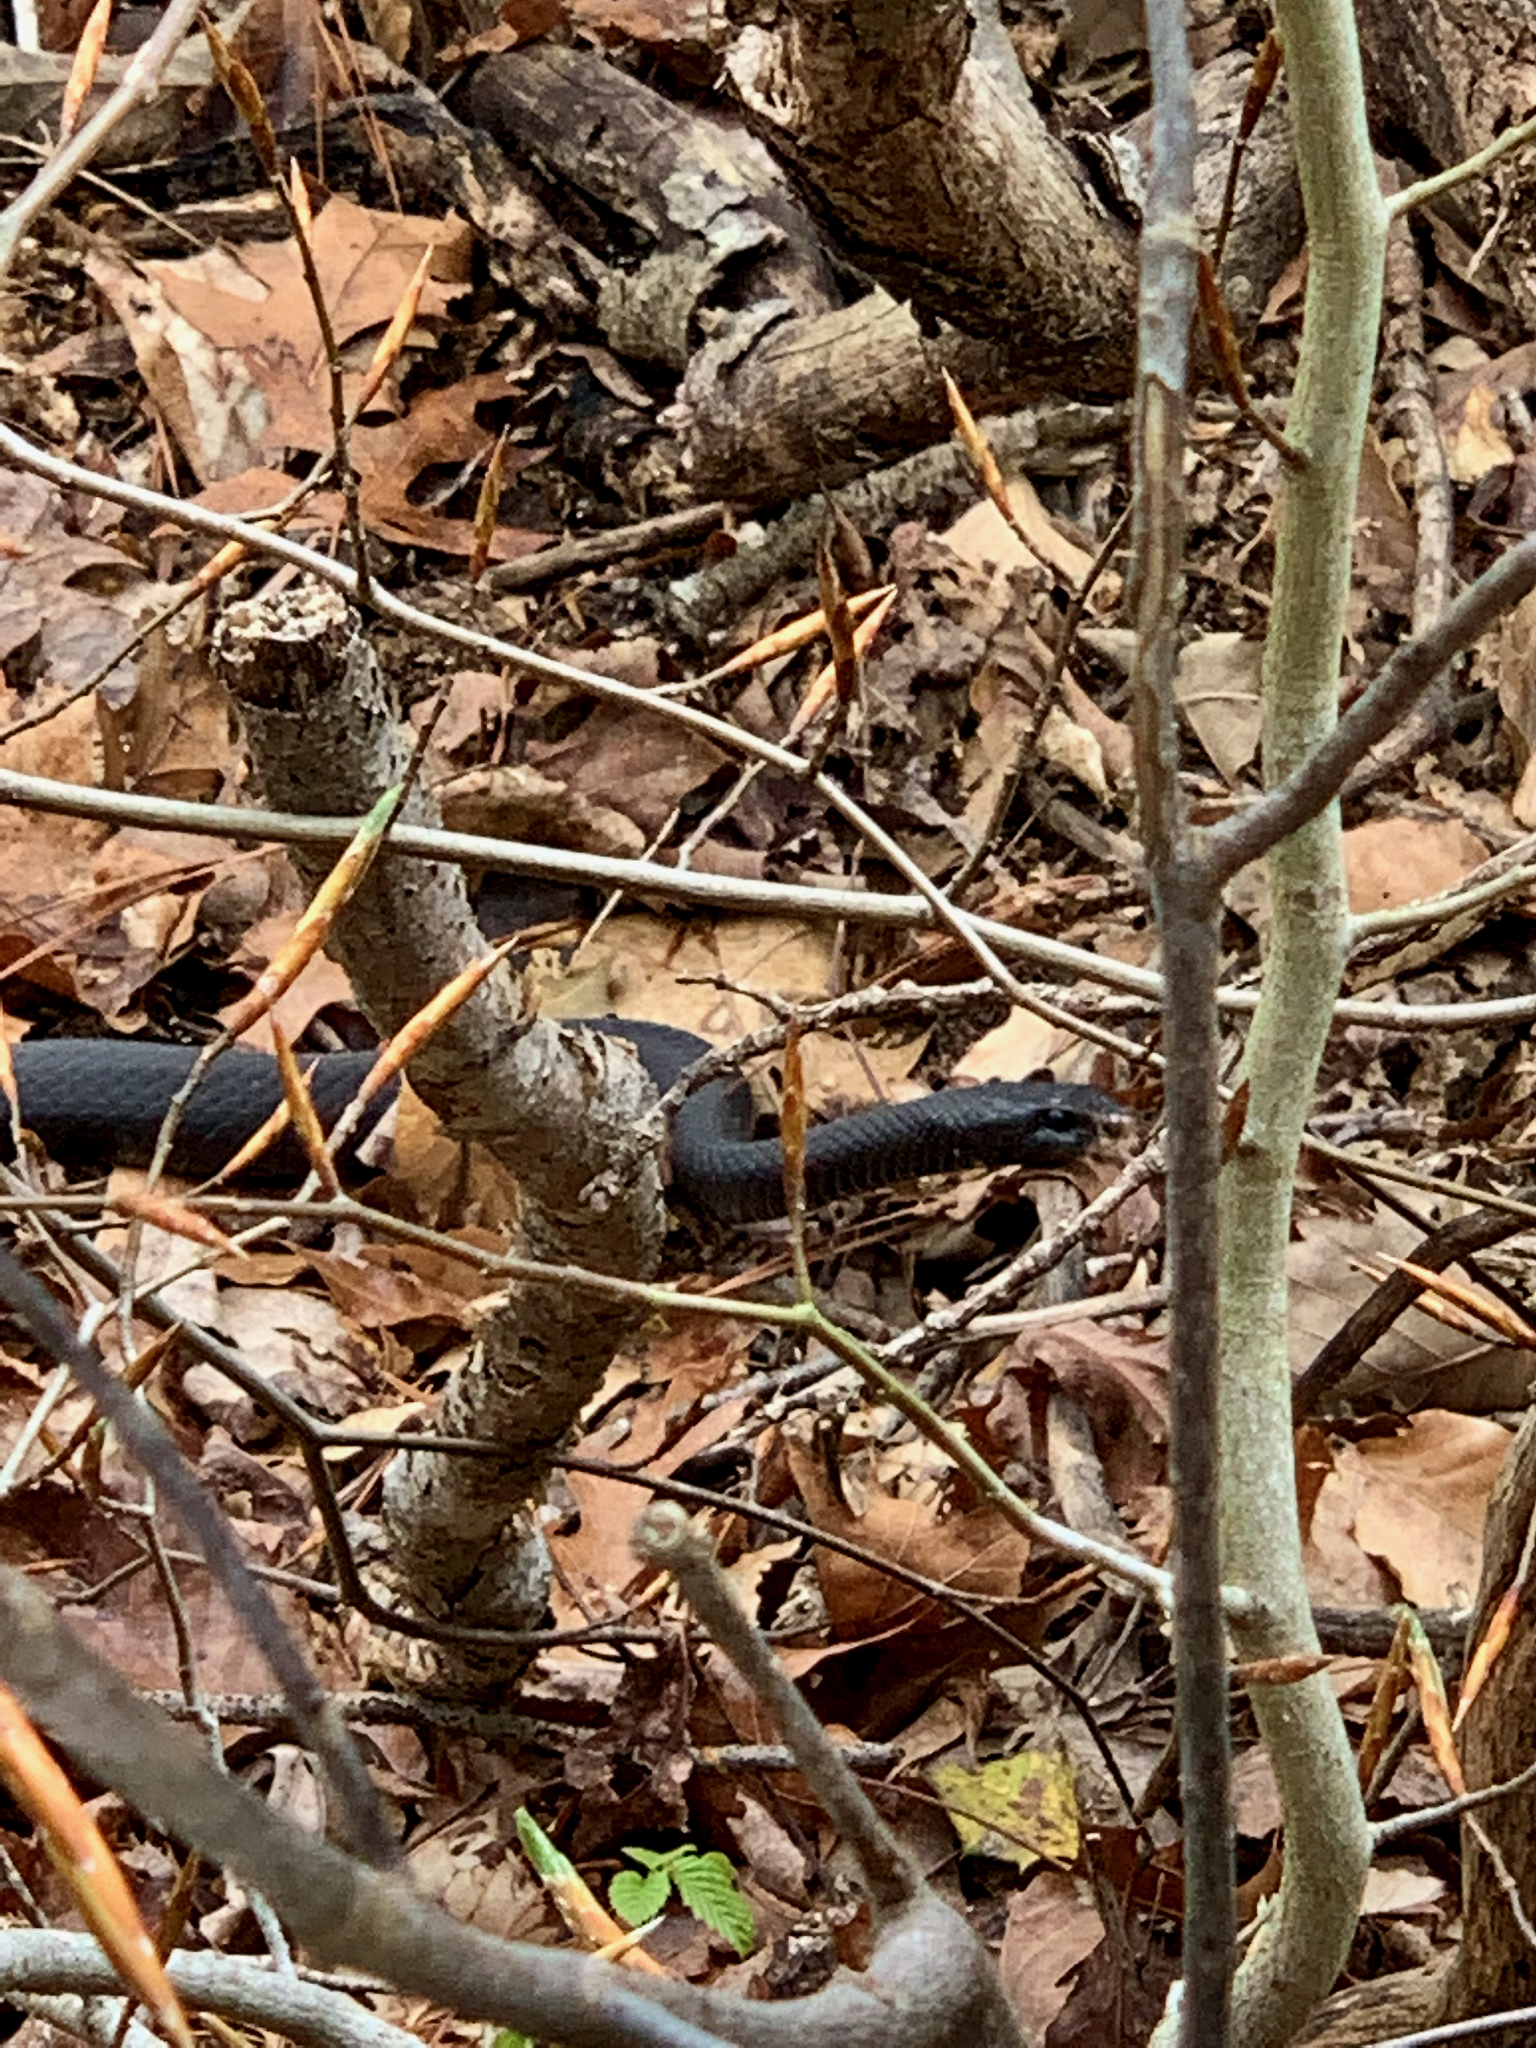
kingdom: Animalia
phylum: Chordata
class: Squamata
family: Colubridae
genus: Coluber
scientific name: Coluber constrictor
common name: Eastern racer
